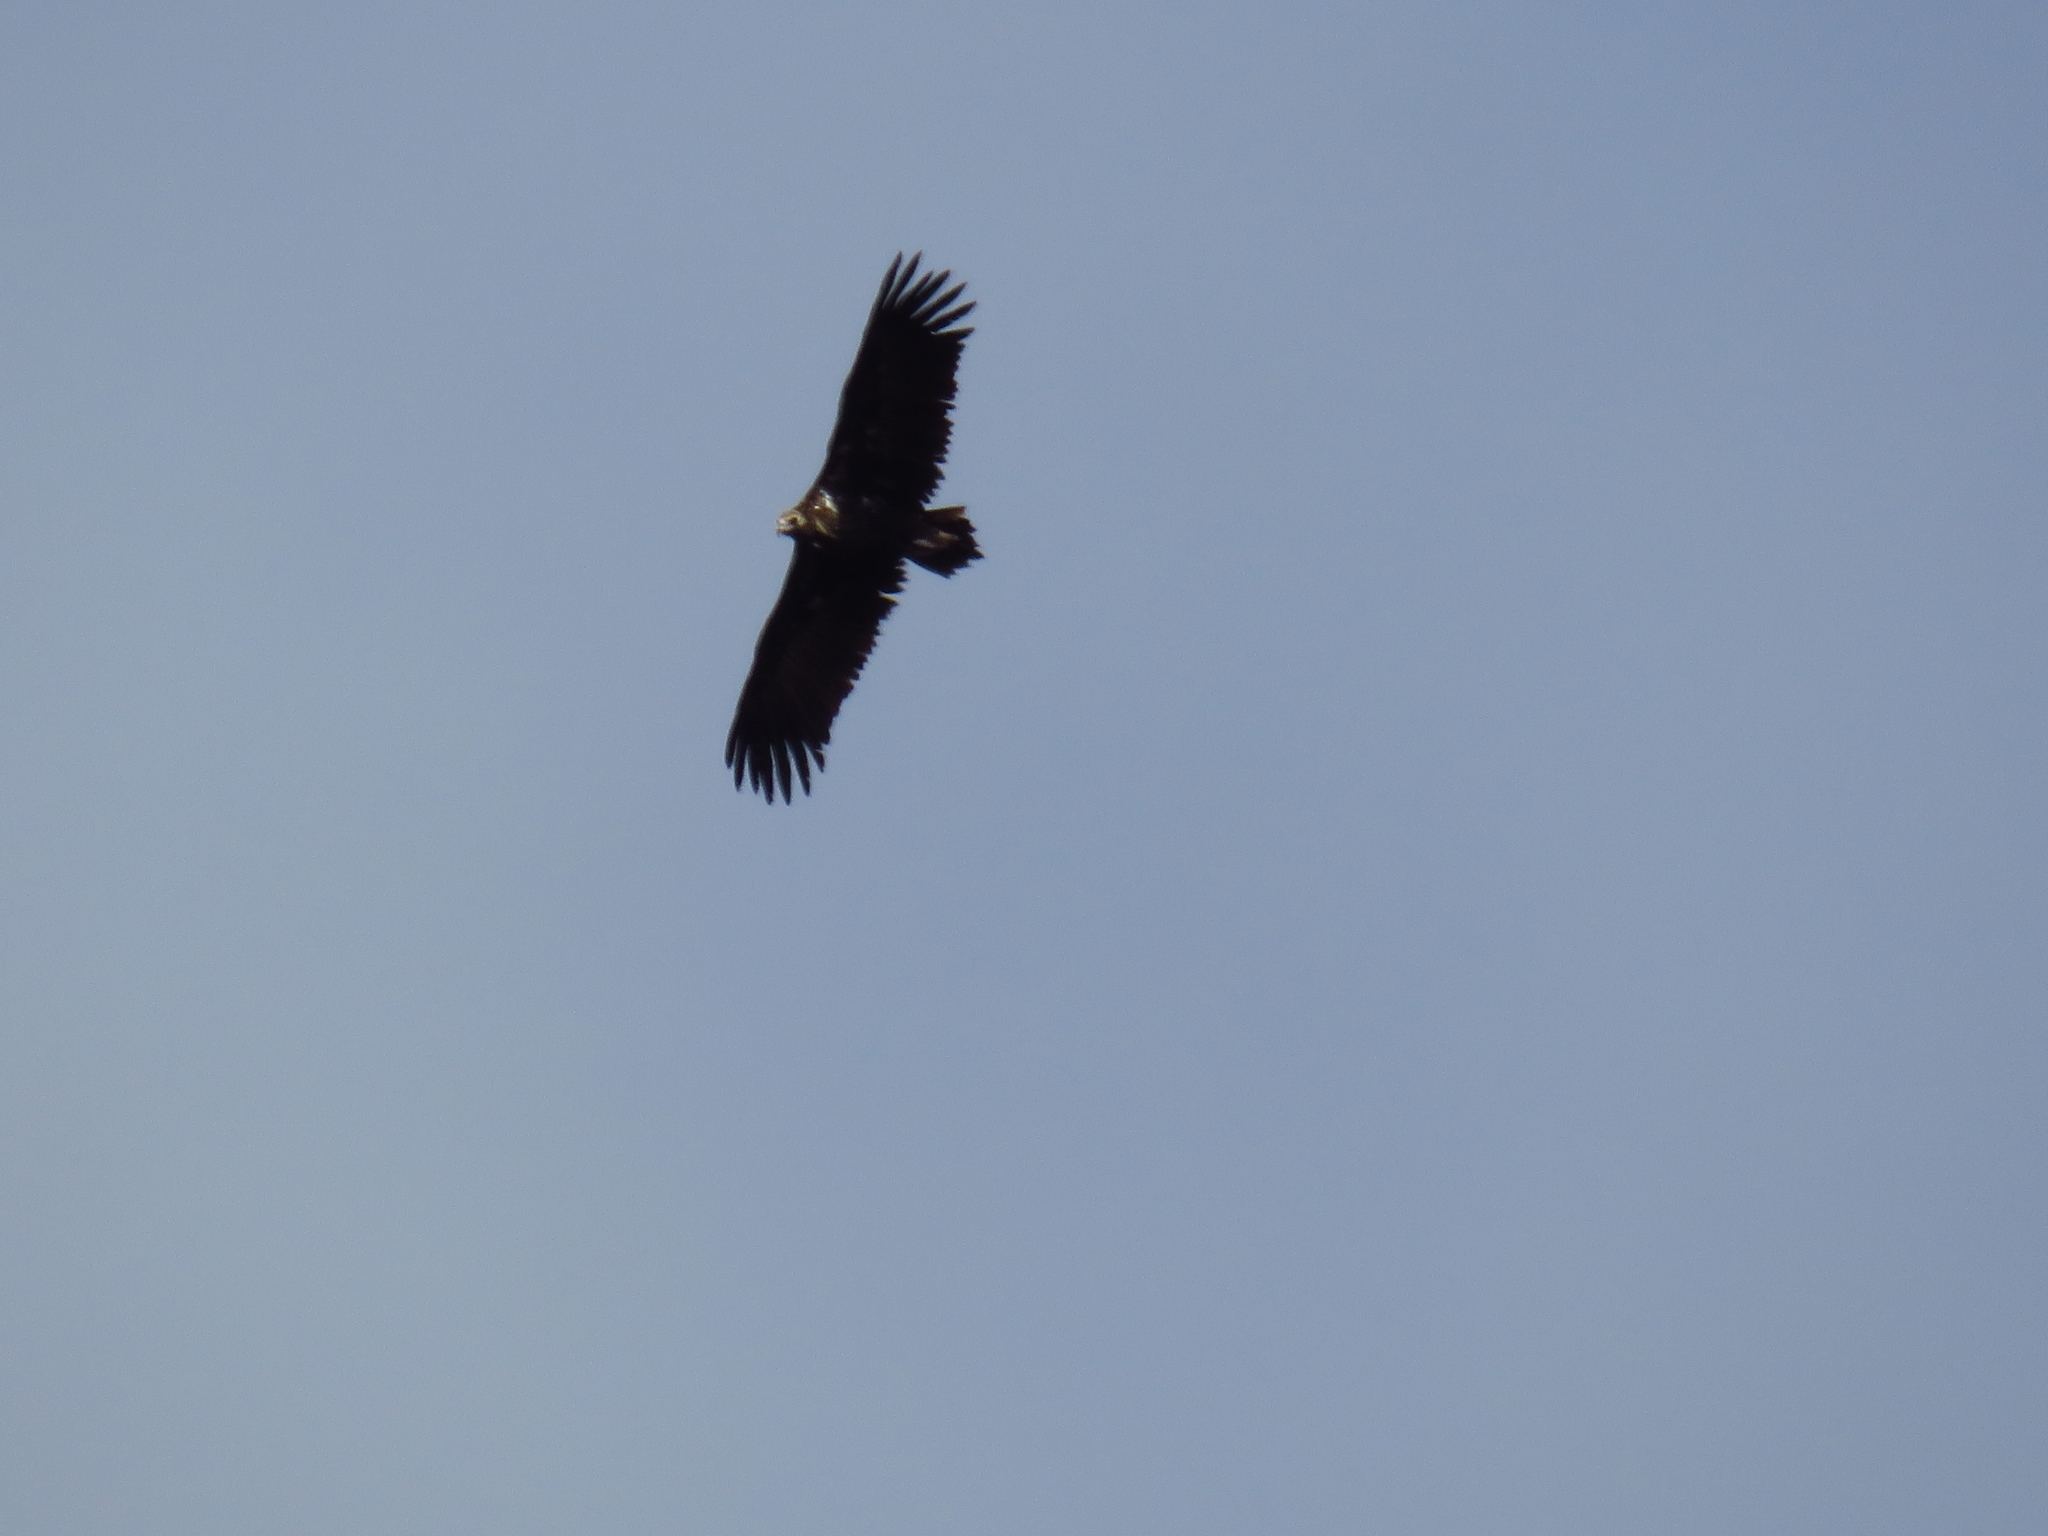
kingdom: Animalia
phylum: Chordata
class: Aves
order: Accipitriformes
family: Accipitridae
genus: Aegypius
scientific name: Aegypius monachus
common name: Cinereous vulture
